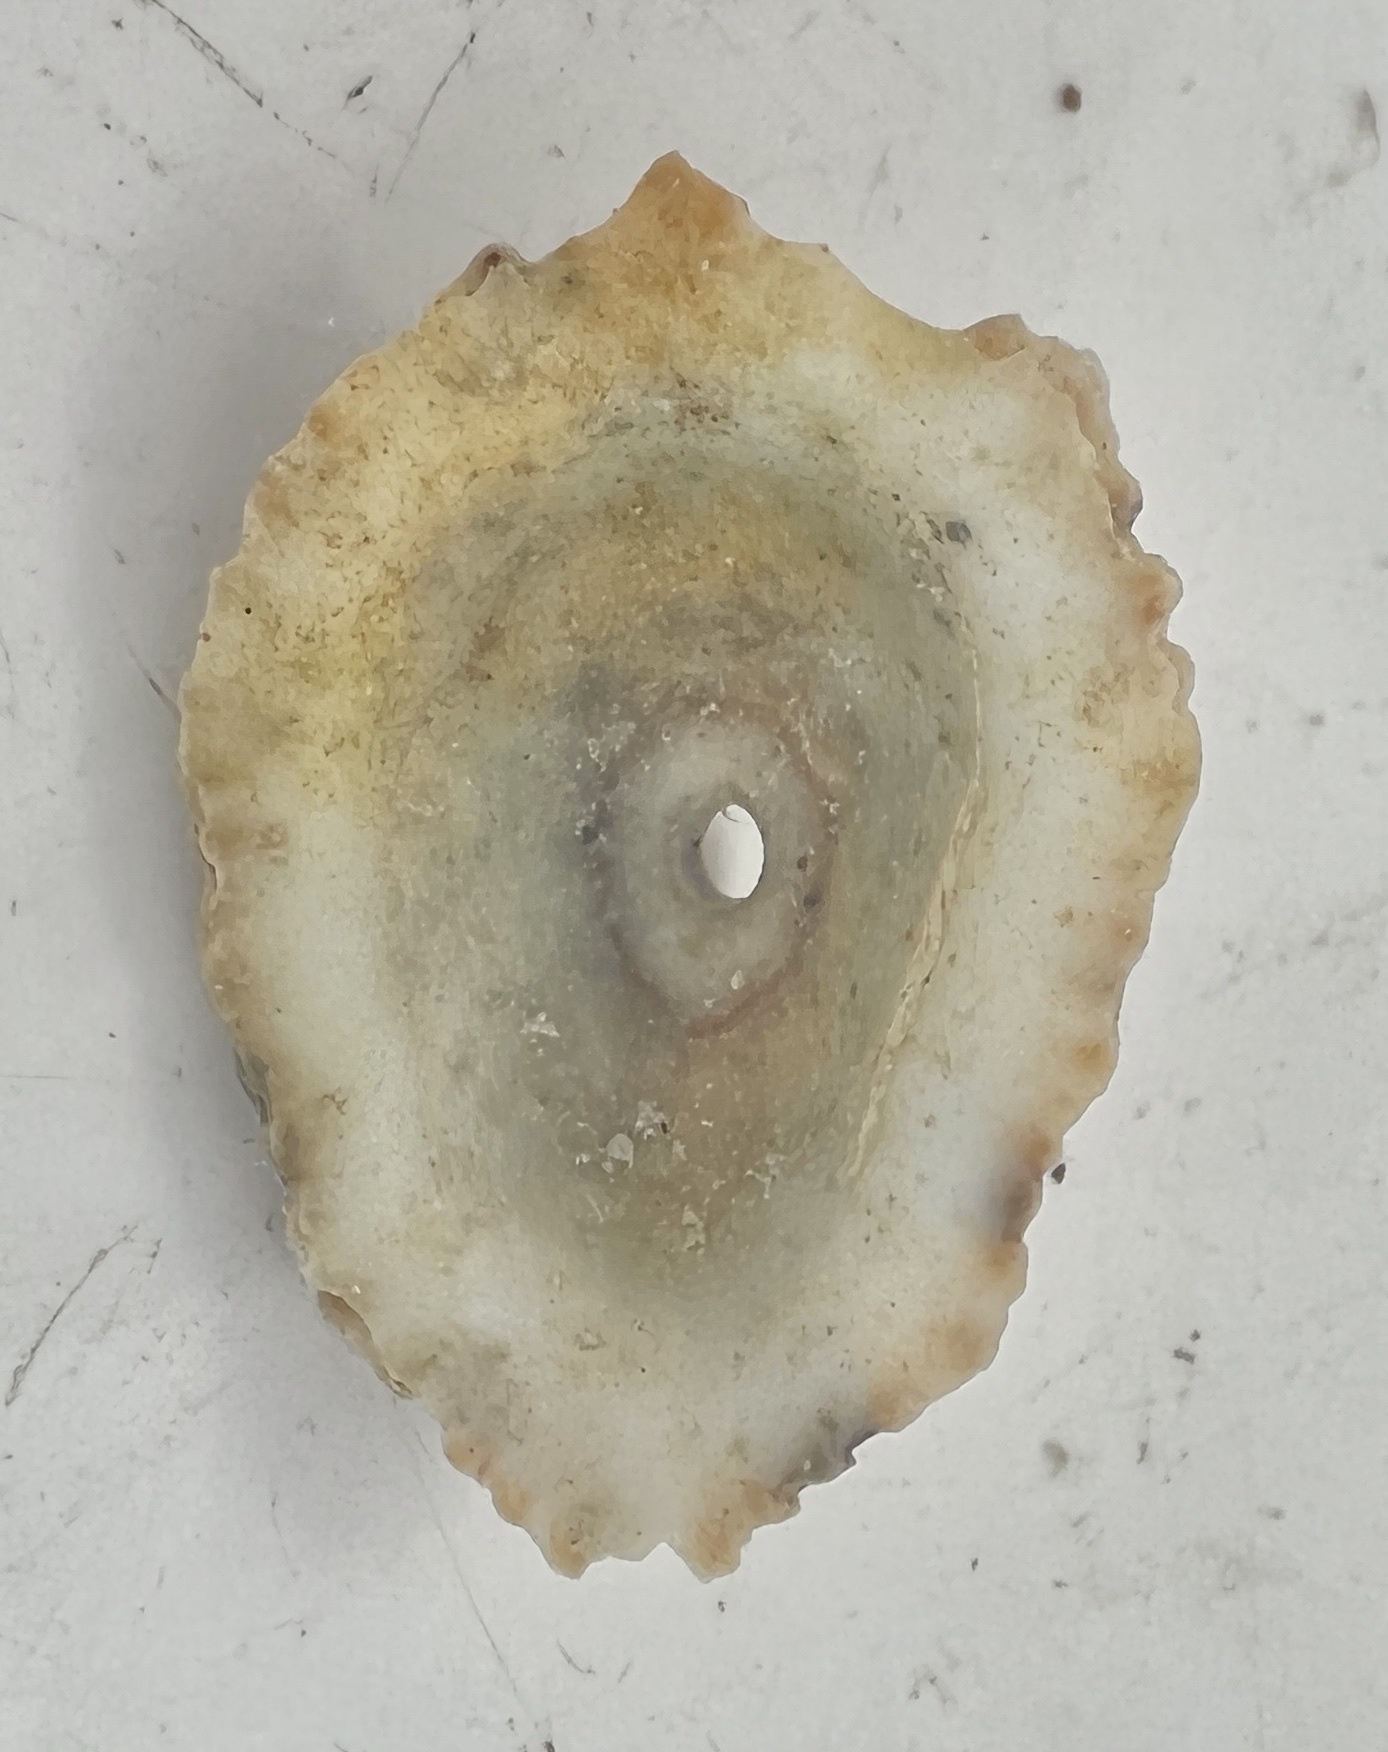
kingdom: Animalia
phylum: Mollusca
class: Gastropoda
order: Lepetellida
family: Fissurellidae
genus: Fissurella
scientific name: Fissurella barbadensis
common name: Barbados keyhole limpet
